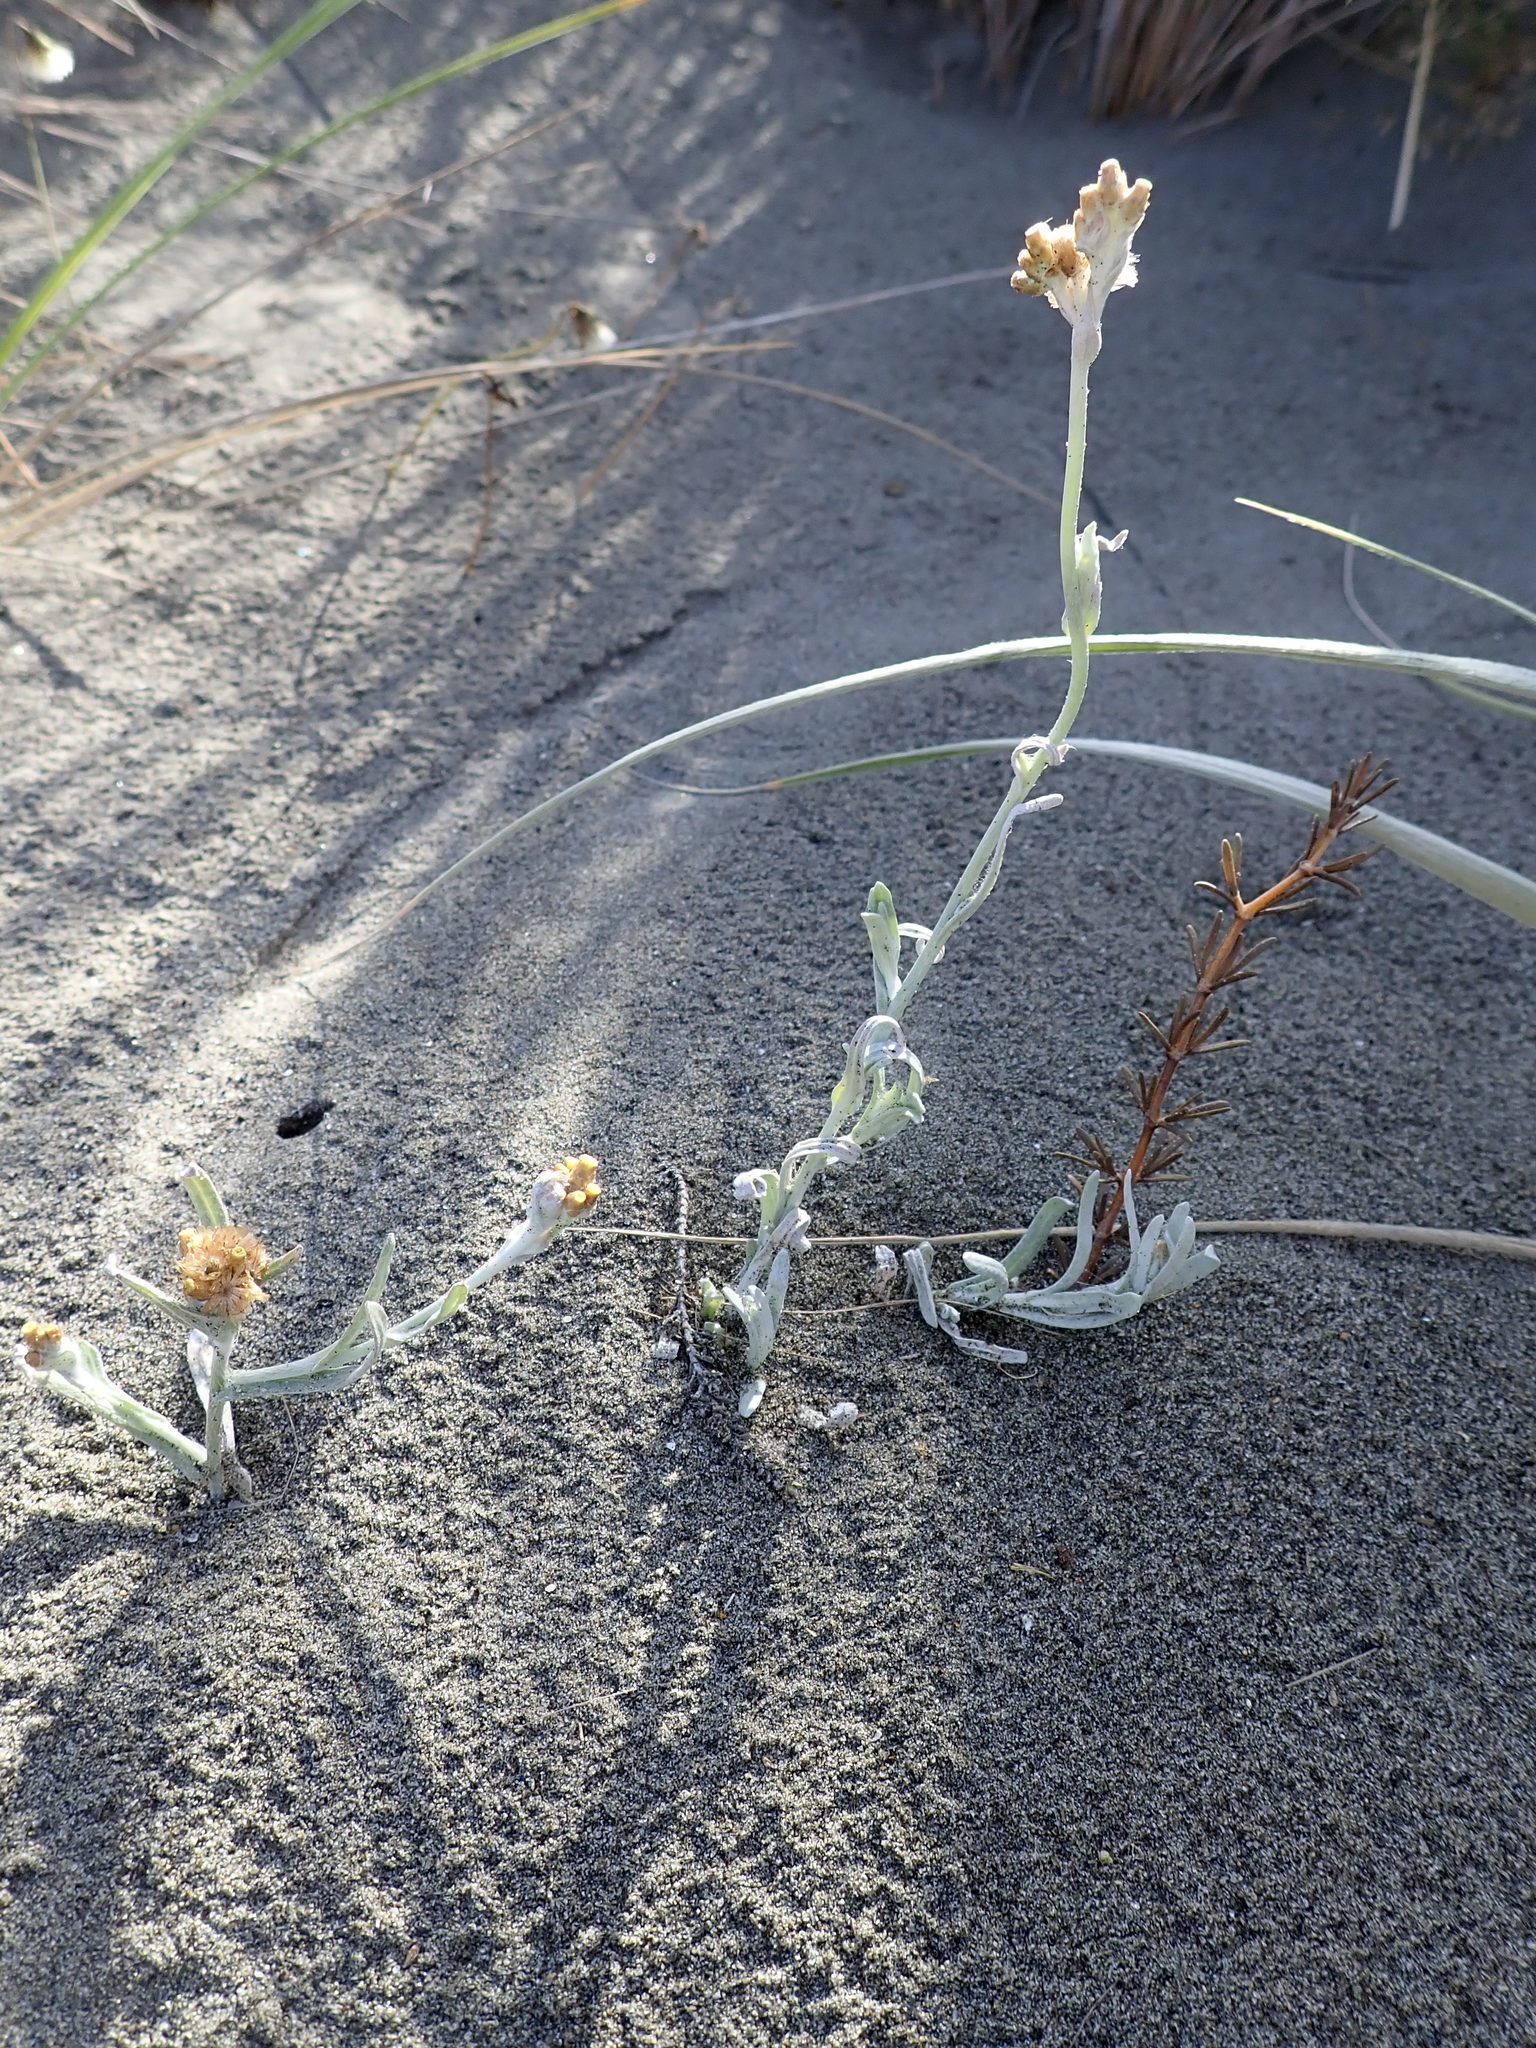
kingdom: Plantae
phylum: Tracheophyta
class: Magnoliopsida
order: Asterales
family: Asteraceae
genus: Pseudognaphalium
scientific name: Pseudognaphalium
